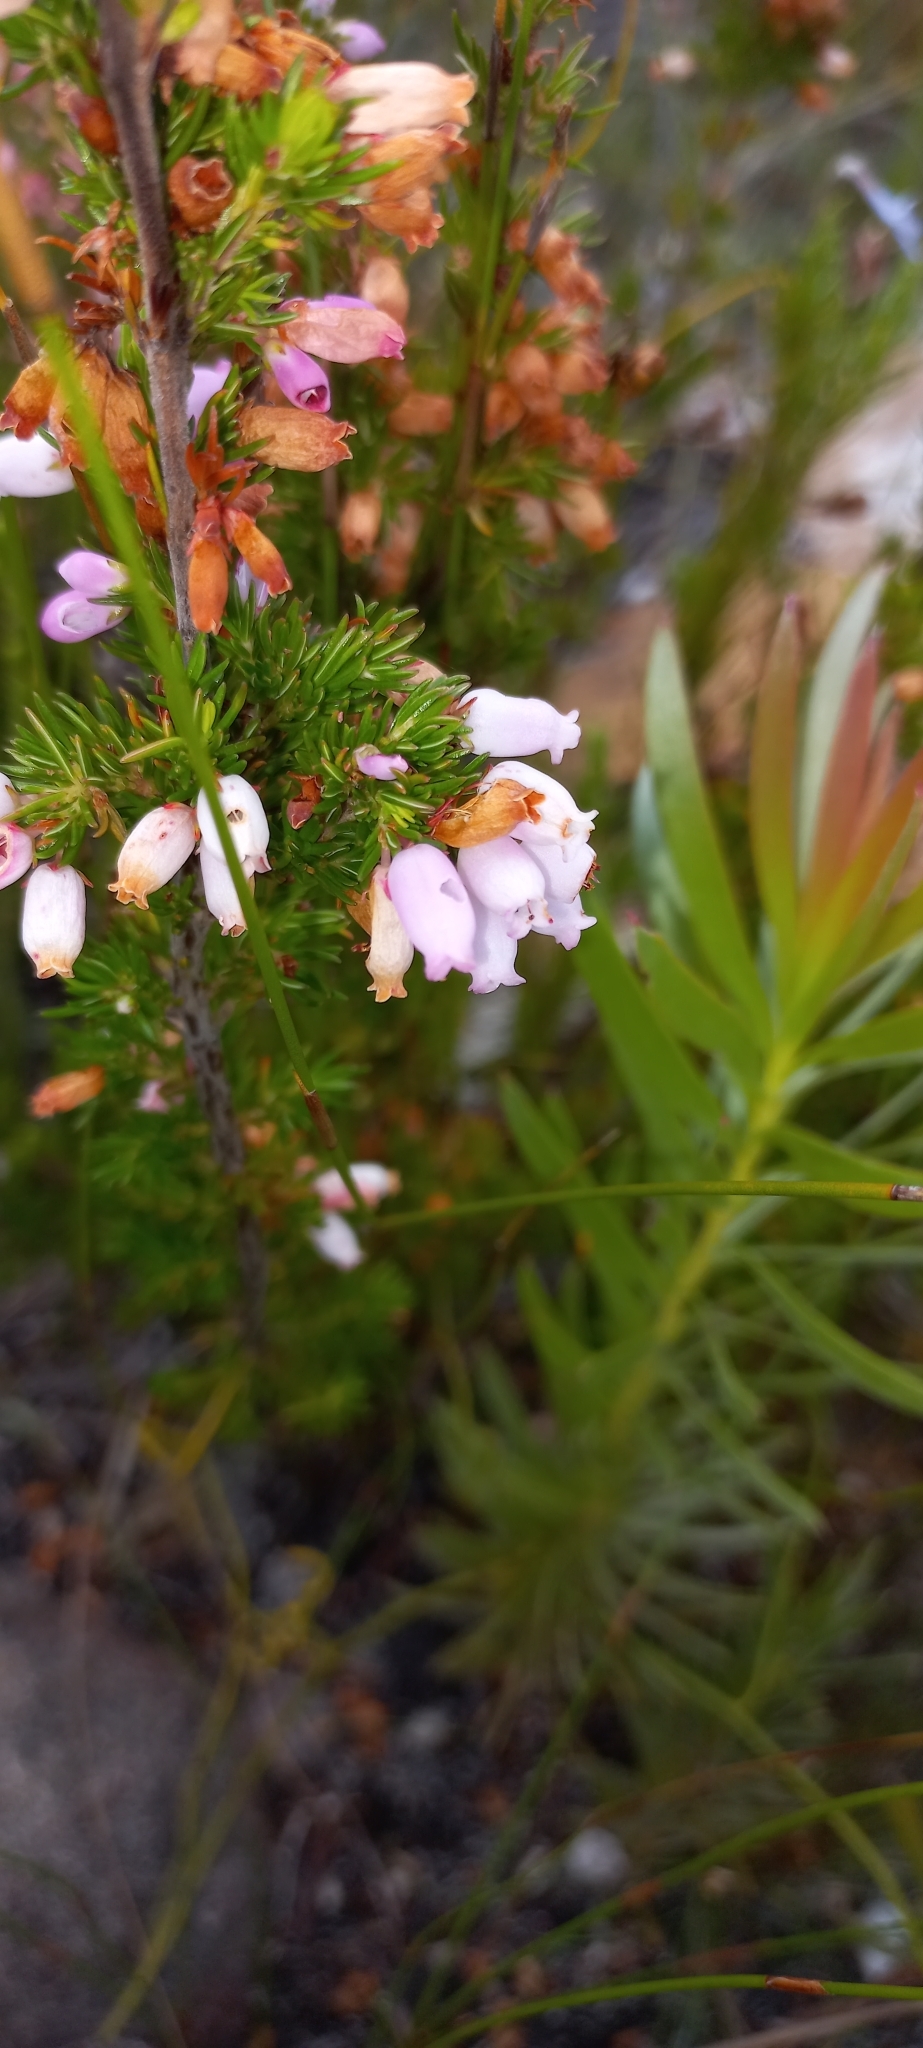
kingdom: Plantae
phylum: Tracheophyta
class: Magnoliopsida
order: Ericales
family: Ericaceae
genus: Erica
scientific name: Erica sitiens
